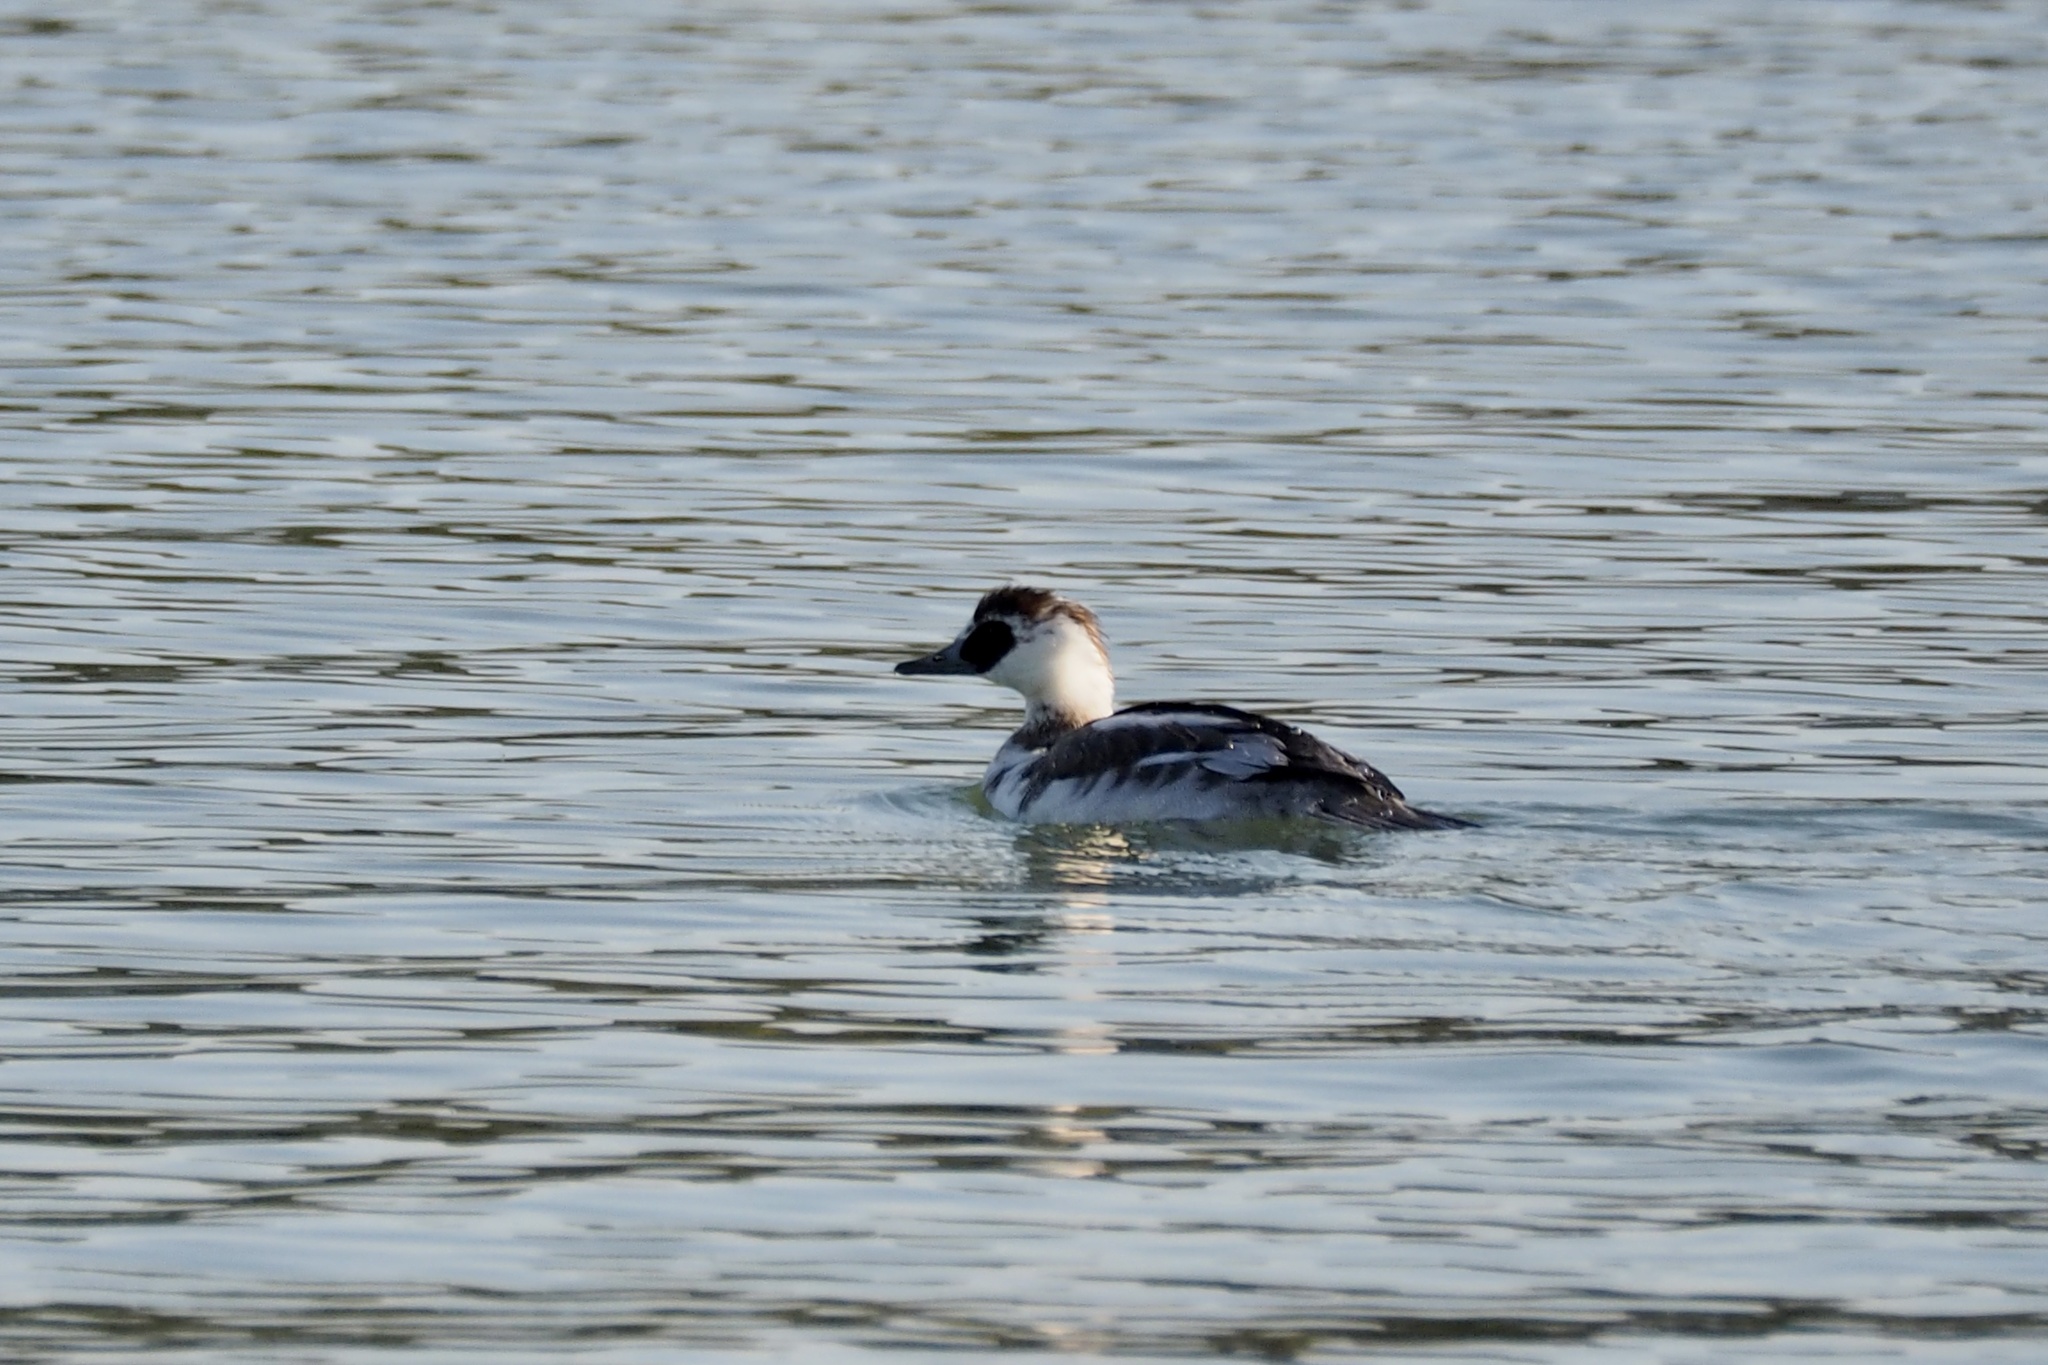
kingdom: Animalia
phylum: Chordata
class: Aves
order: Anseriformes
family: Anatidae
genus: Mergellus
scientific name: Mergellus albellus
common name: Smew
